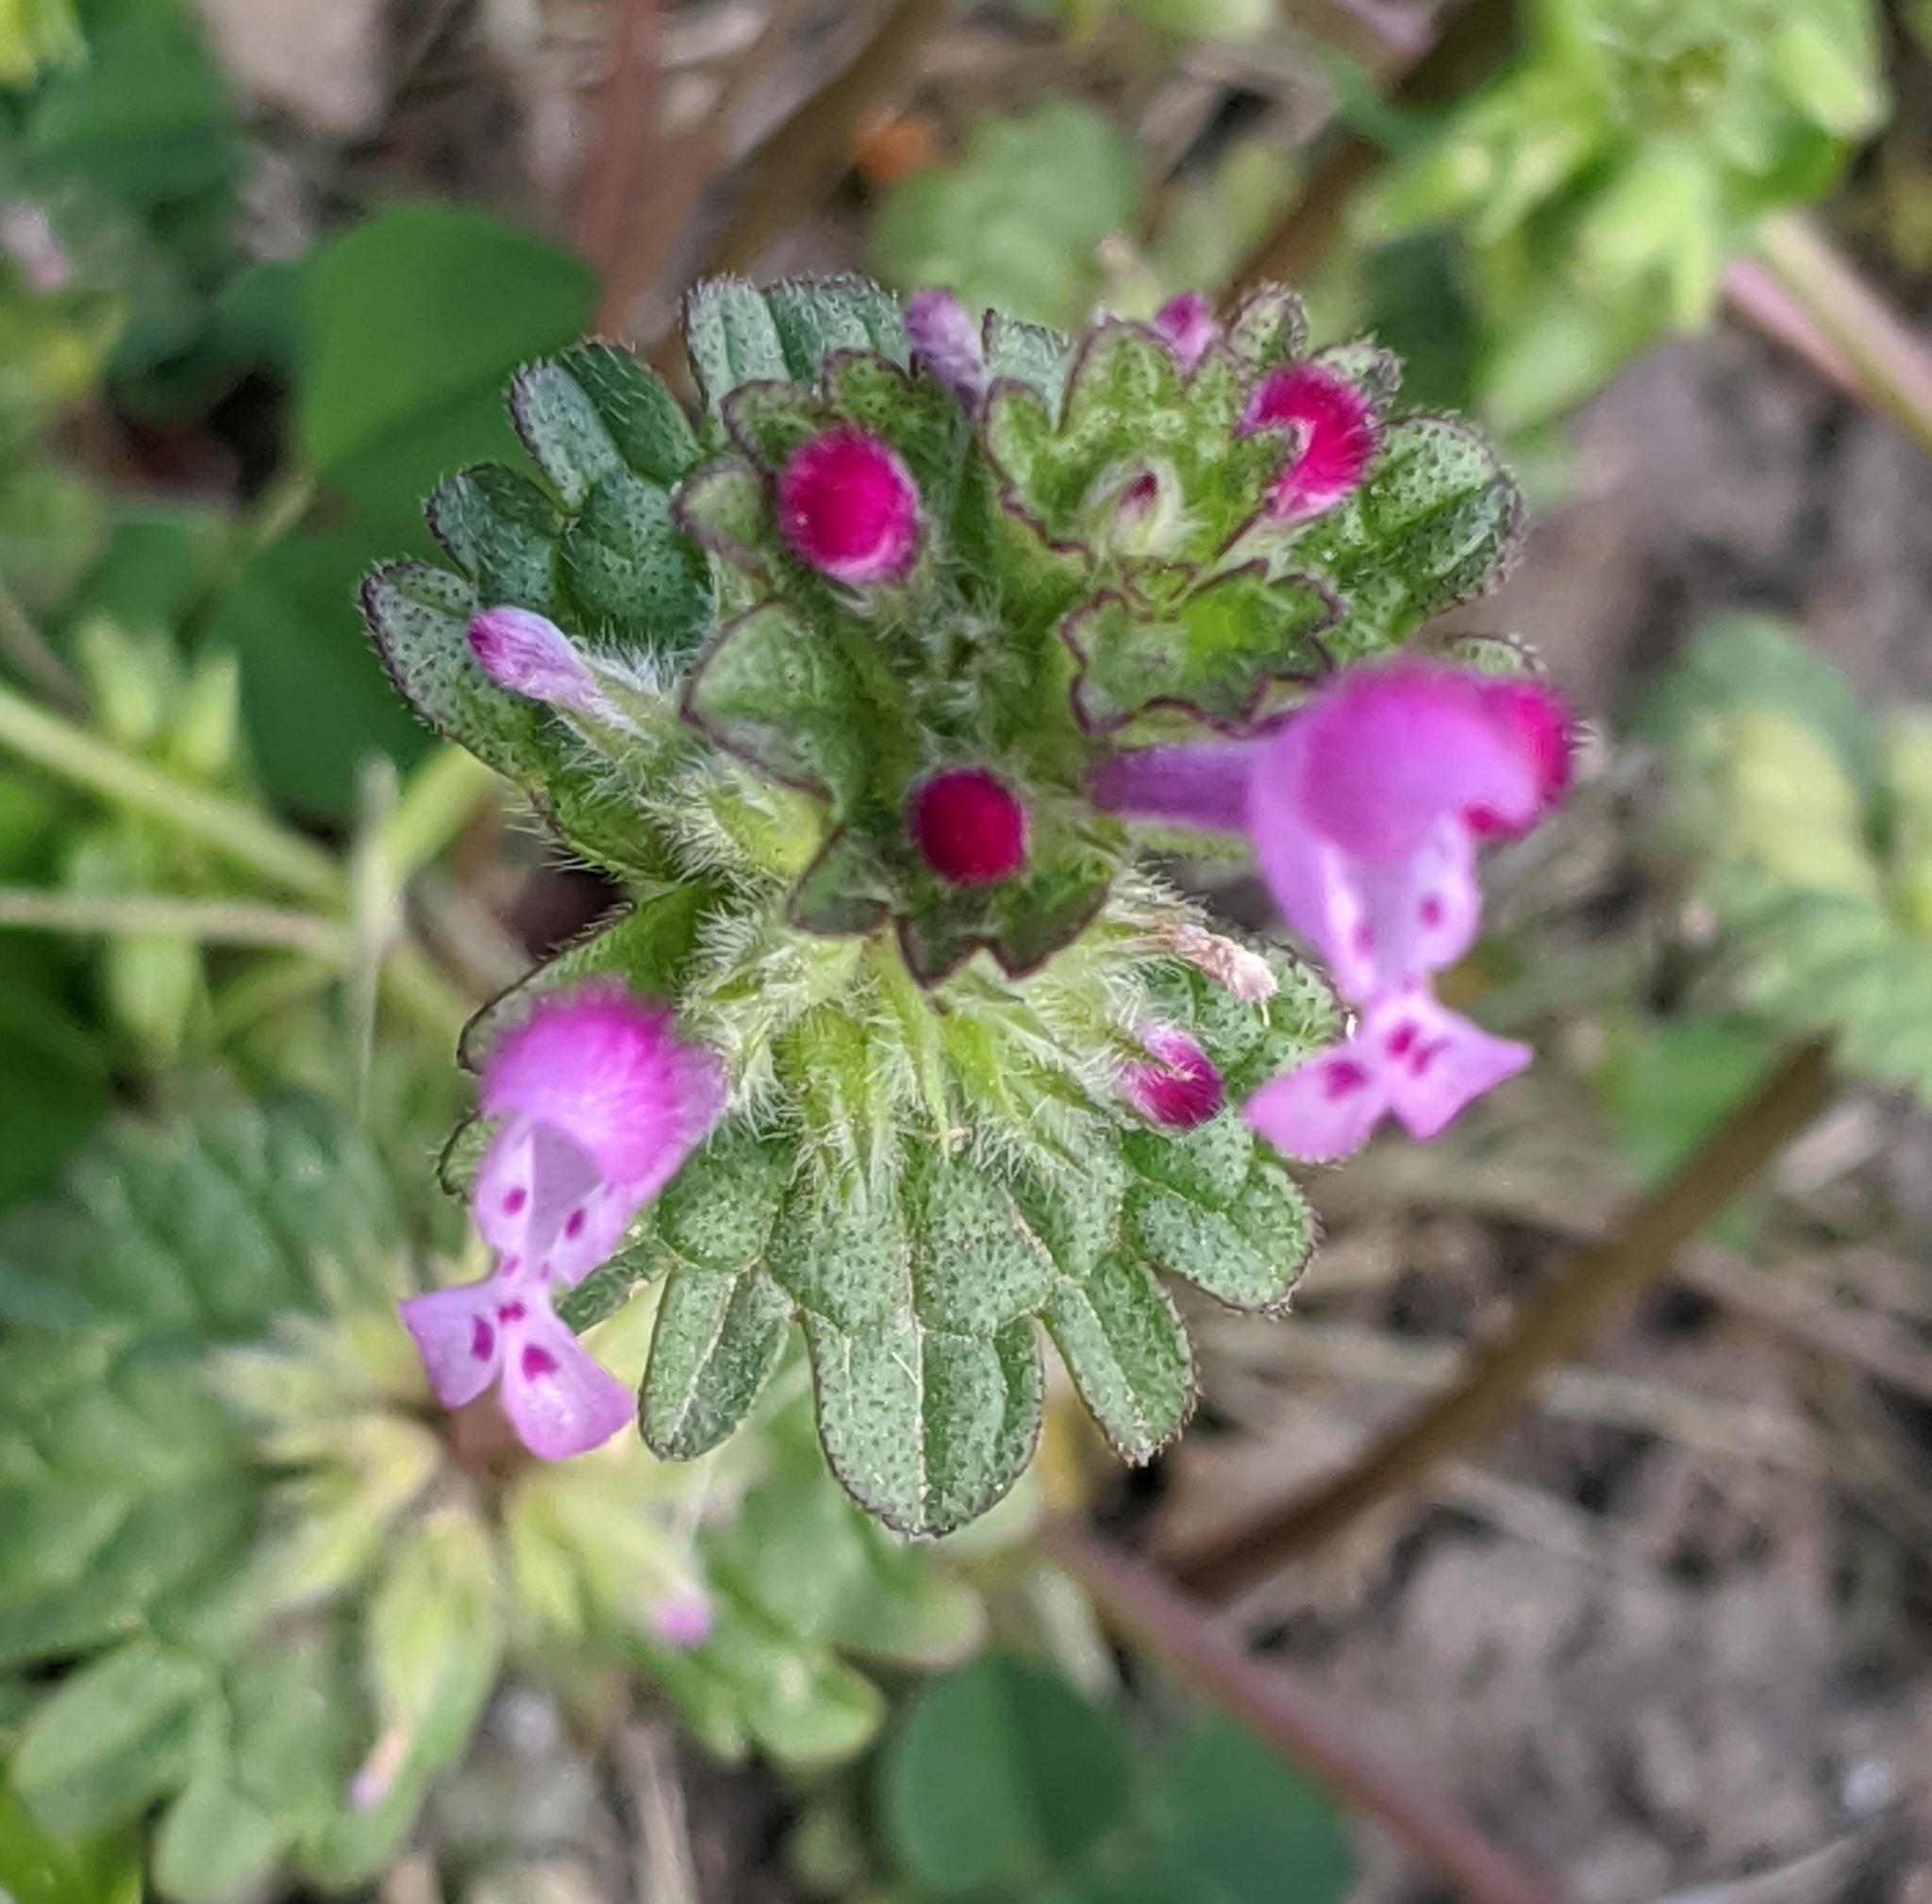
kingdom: Plantae
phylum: Tracheophyta
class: Magnoliopsida
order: Lamiales
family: Lamiaceae
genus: Lamium
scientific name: Lamium amplexicaule
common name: Henbit dead-nettle
